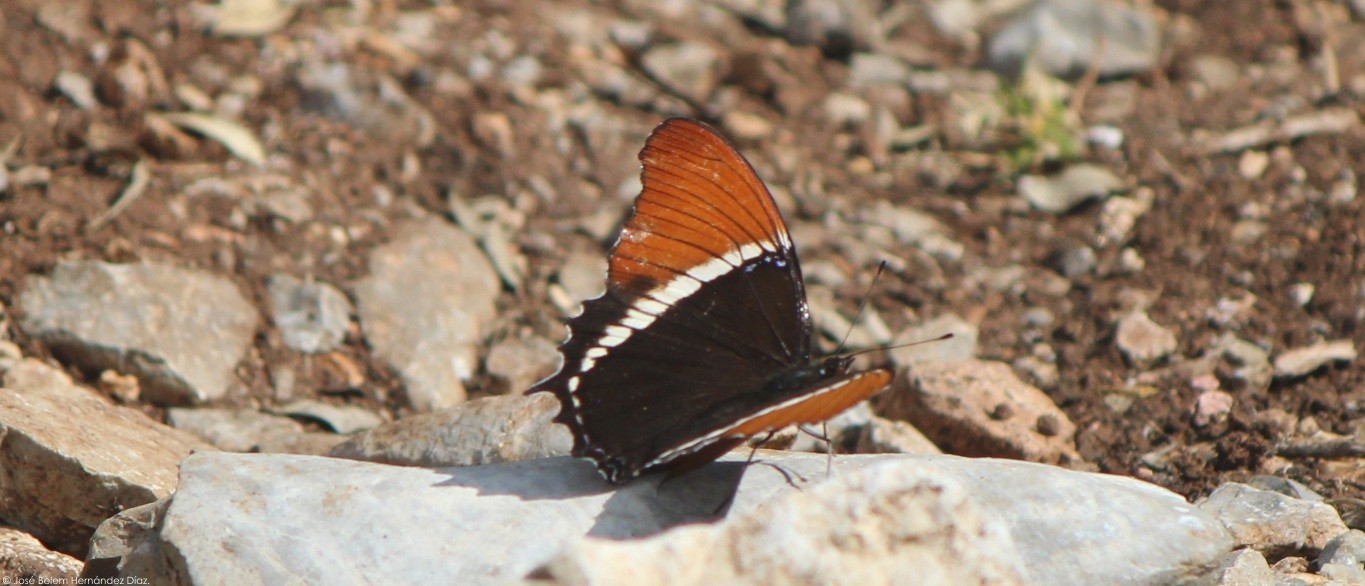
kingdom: Animalia
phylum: Arthropoda
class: Insecta
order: Lepidoptera
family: Nymphalidae
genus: Siproeta
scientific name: Siproeta epaphus
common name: Rusty-tipped page
